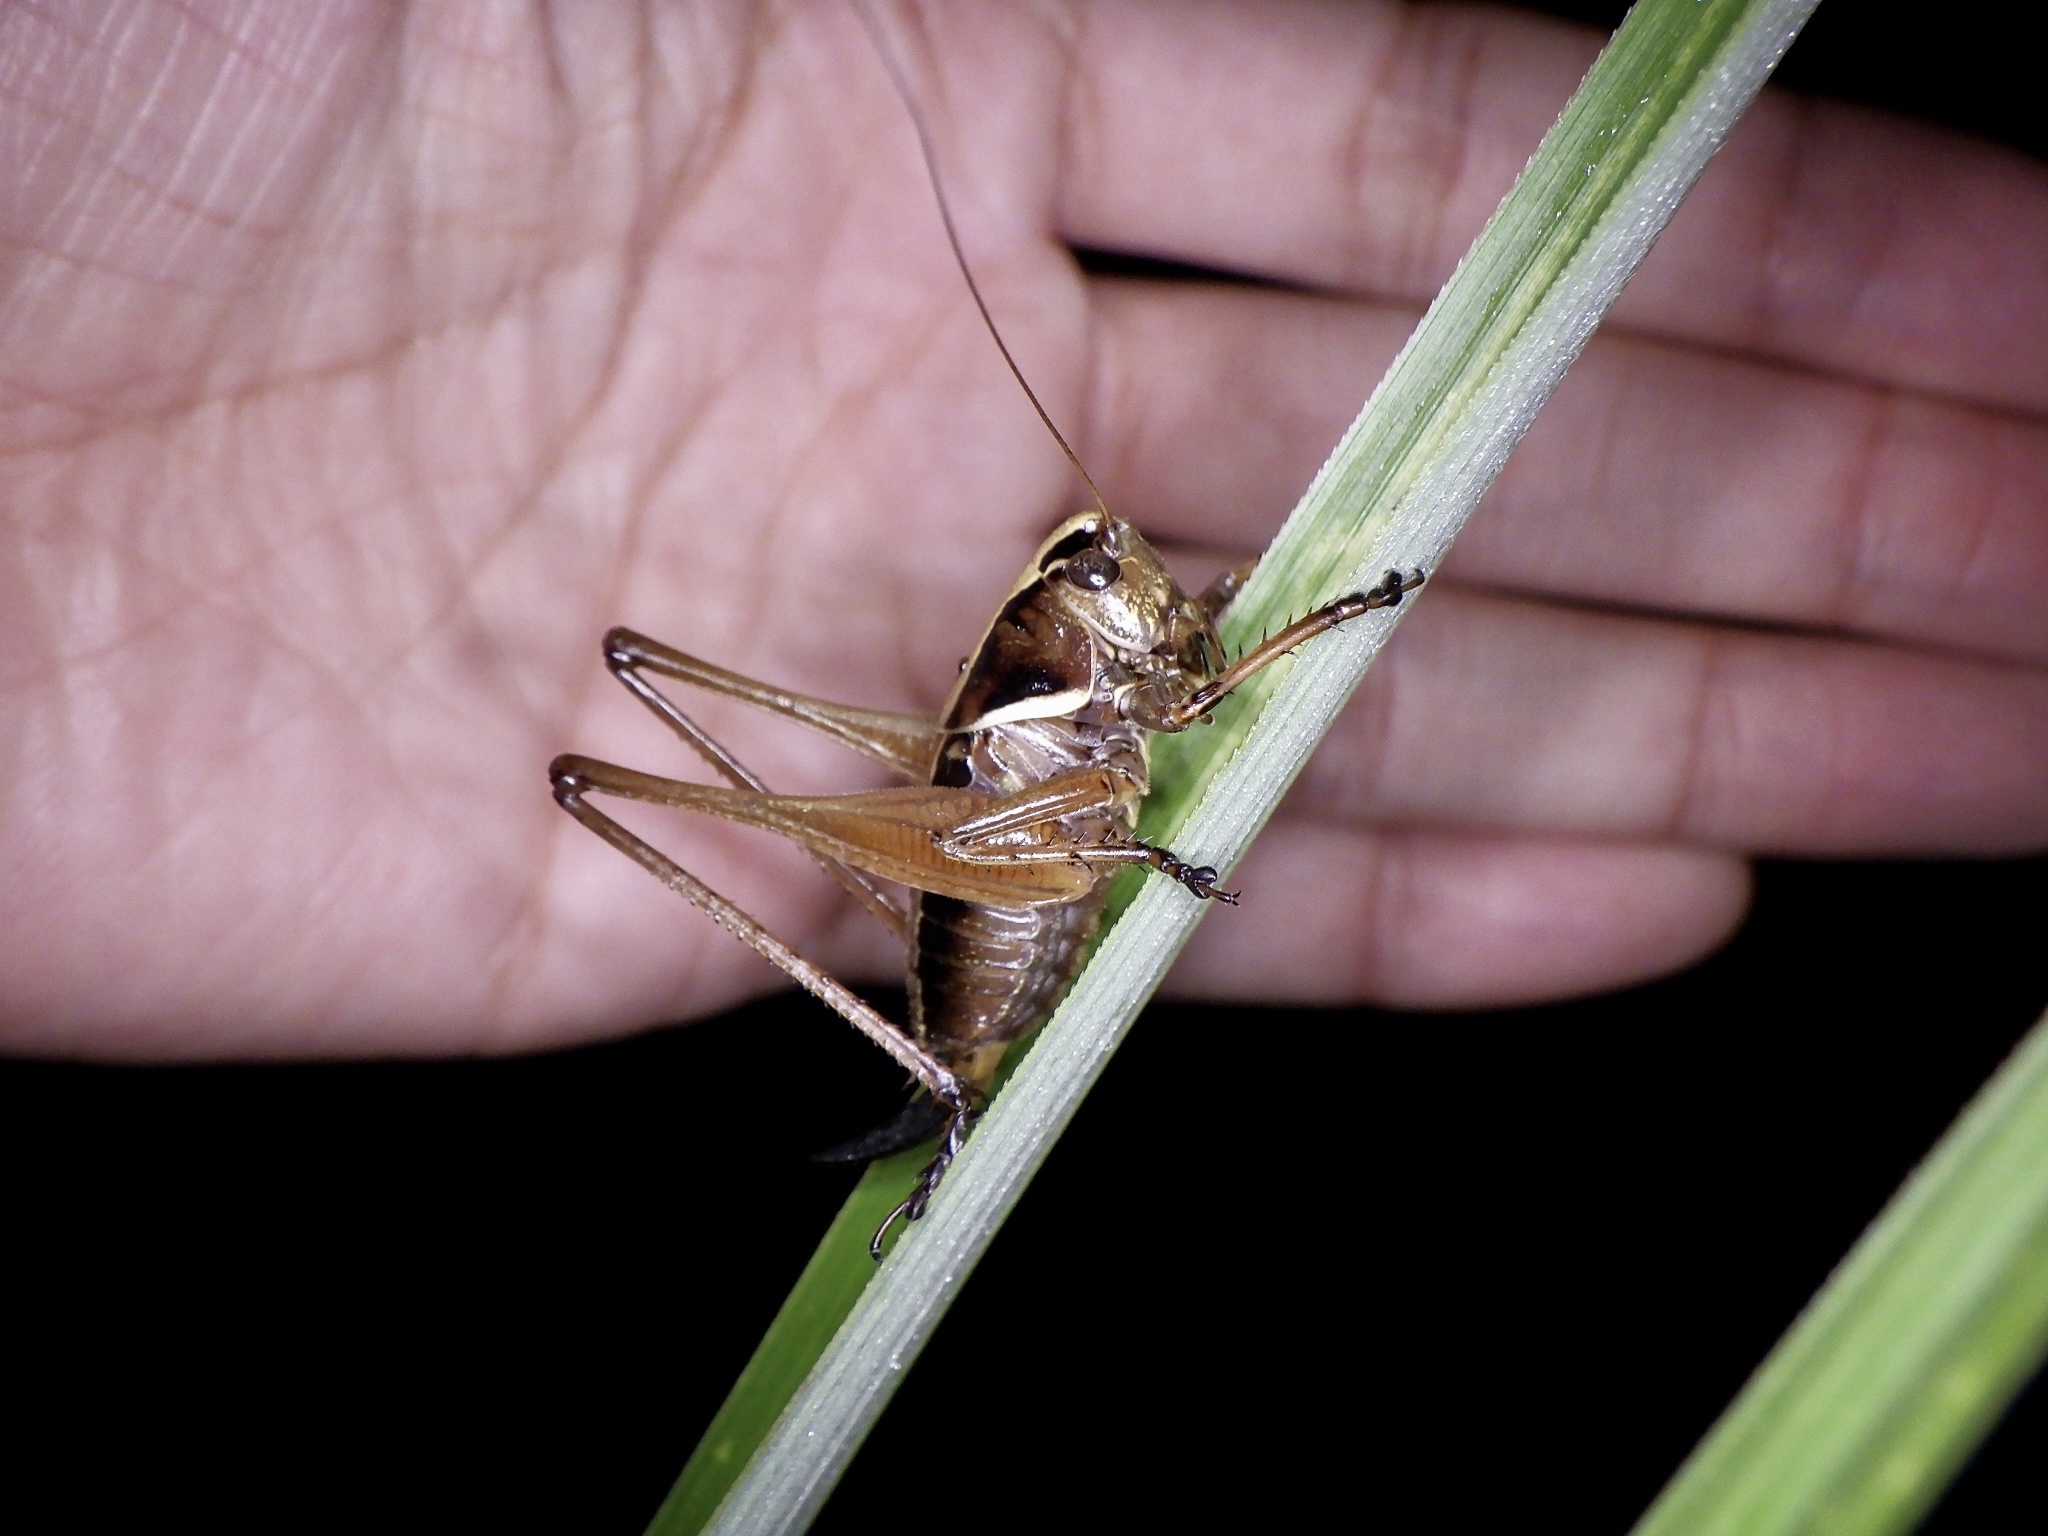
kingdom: Animalia
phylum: Arthropoda
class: Insecta
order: Orthoptera
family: Tettigoniidae
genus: Eobiana
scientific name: Eobiana engelhardti
